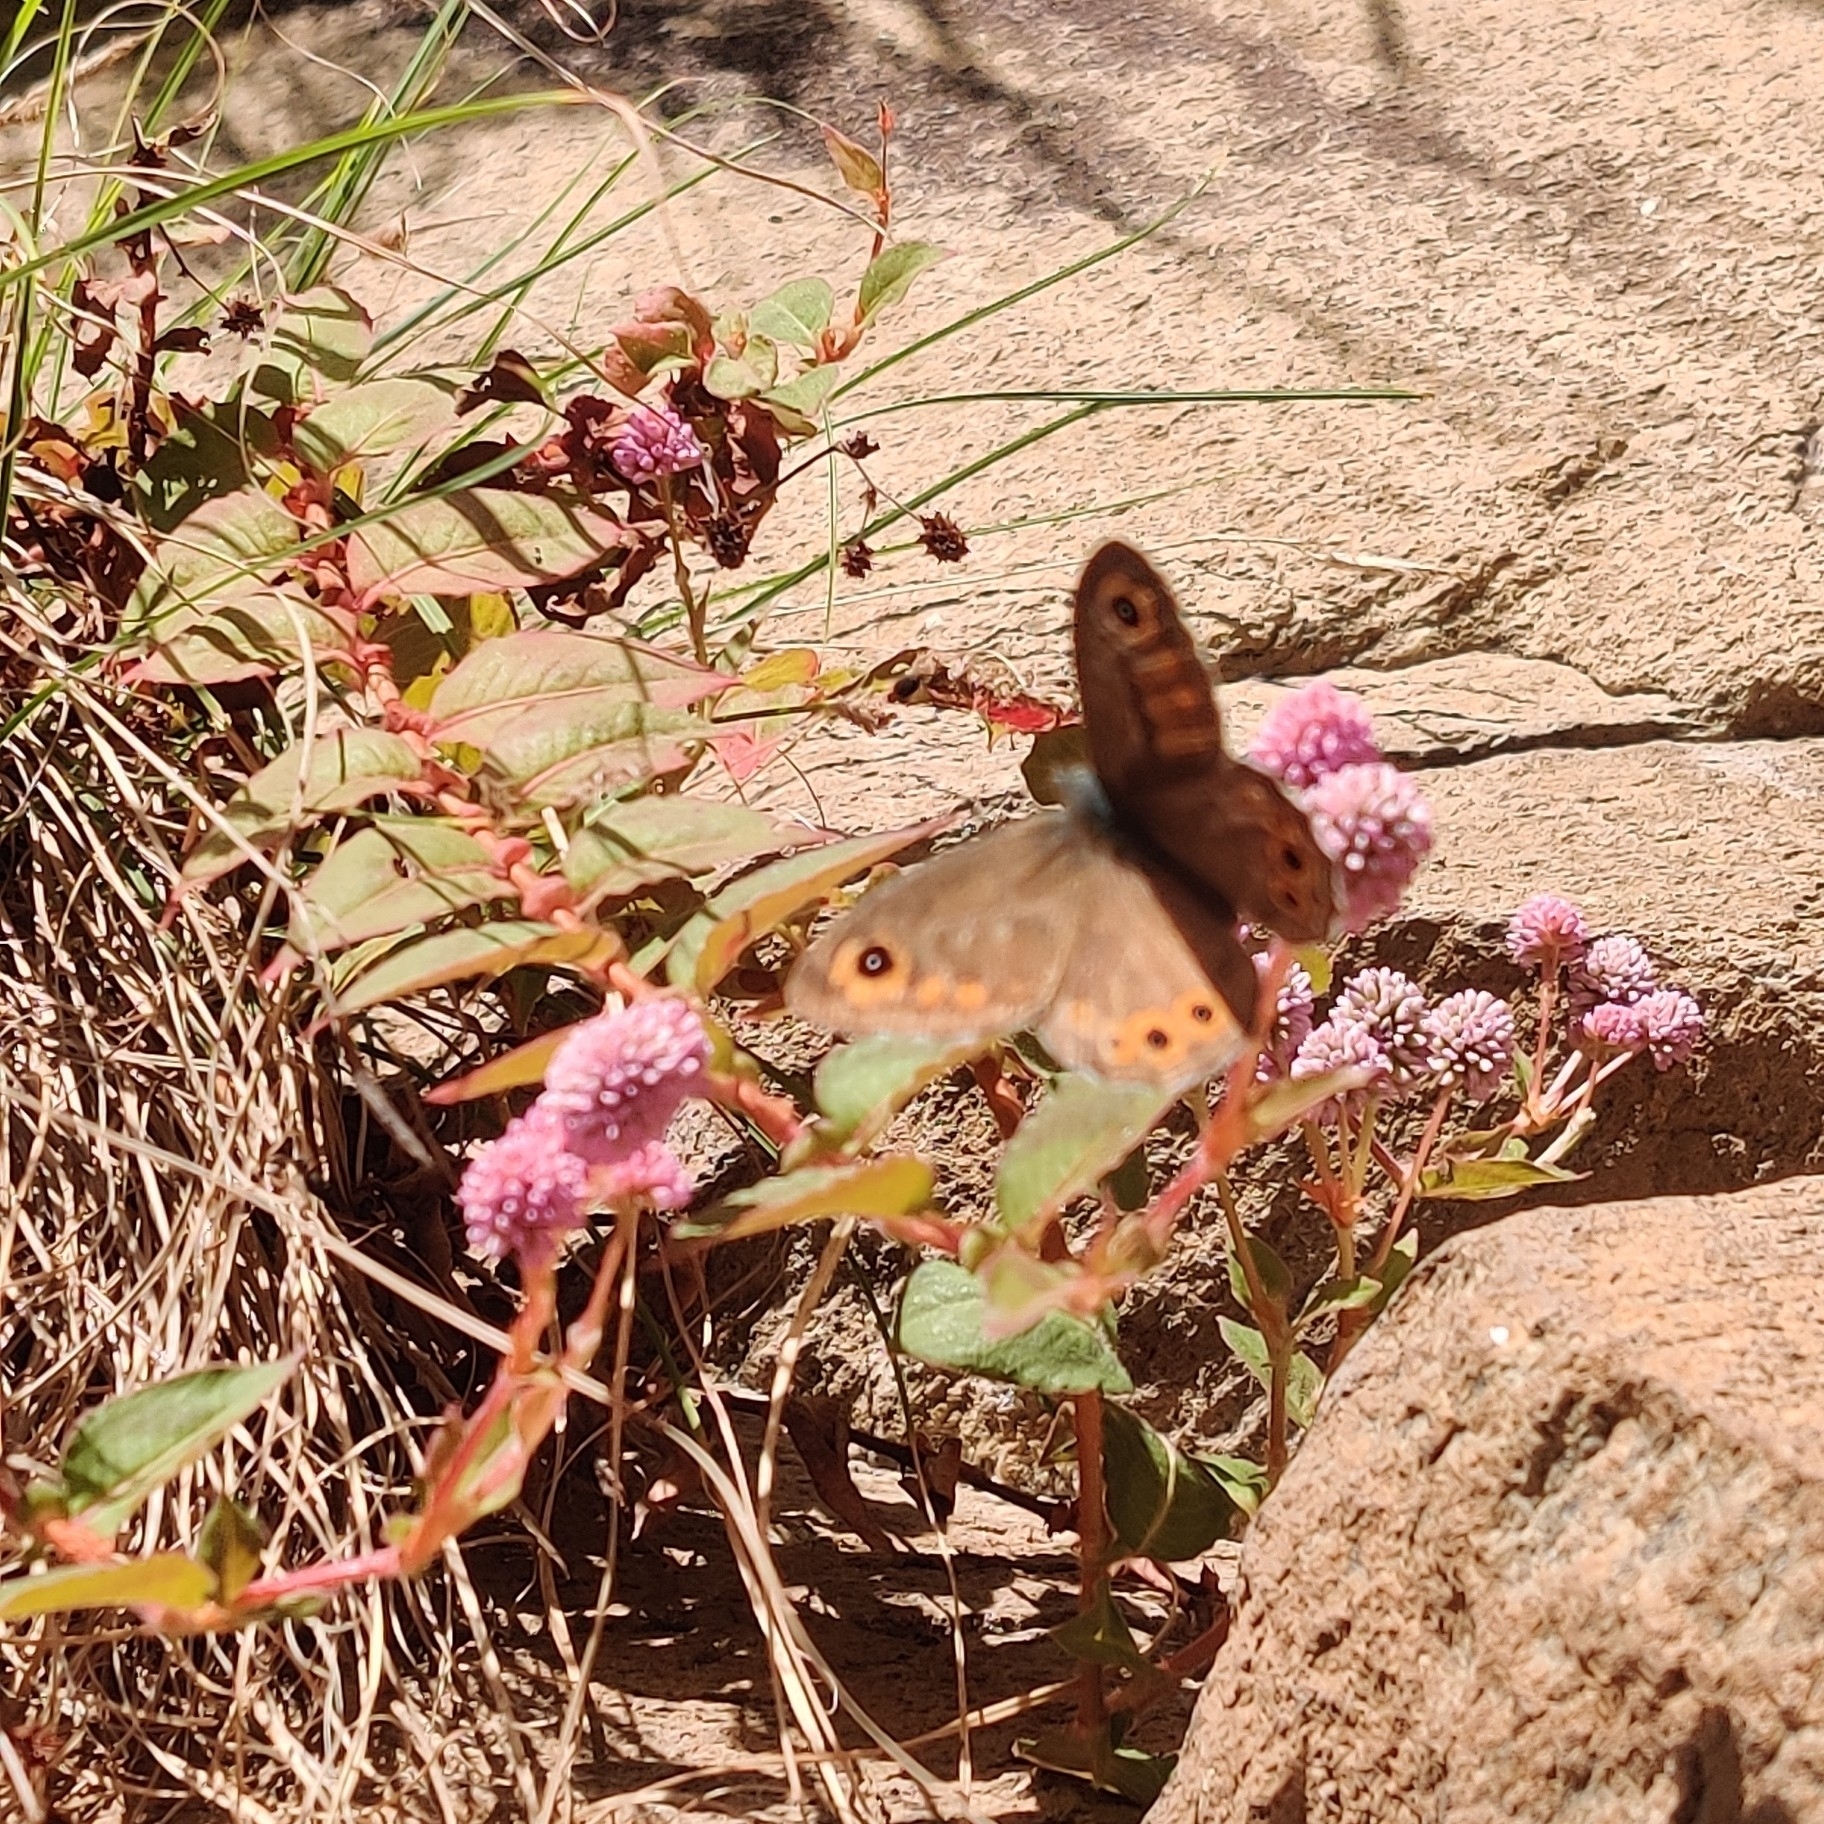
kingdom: Animalia
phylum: Arthropoda
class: Insecta
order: Lepidoptera
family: Nymphalidae
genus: Pararge
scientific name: Pararge Lasiommata schakra
